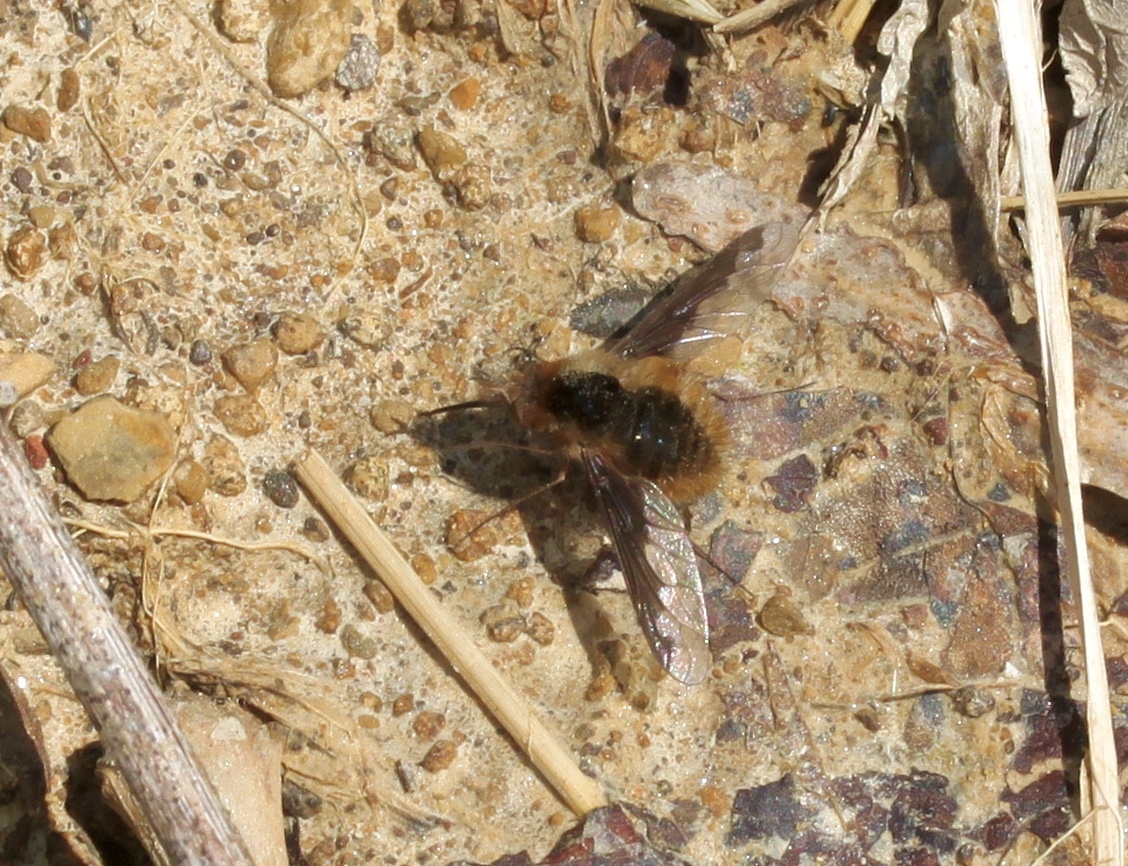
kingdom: Animalia
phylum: Arthropoda
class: Insecta
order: Diptera
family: Bombyliidae
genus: Bombylius
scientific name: Bombylius major
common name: Bee fly
